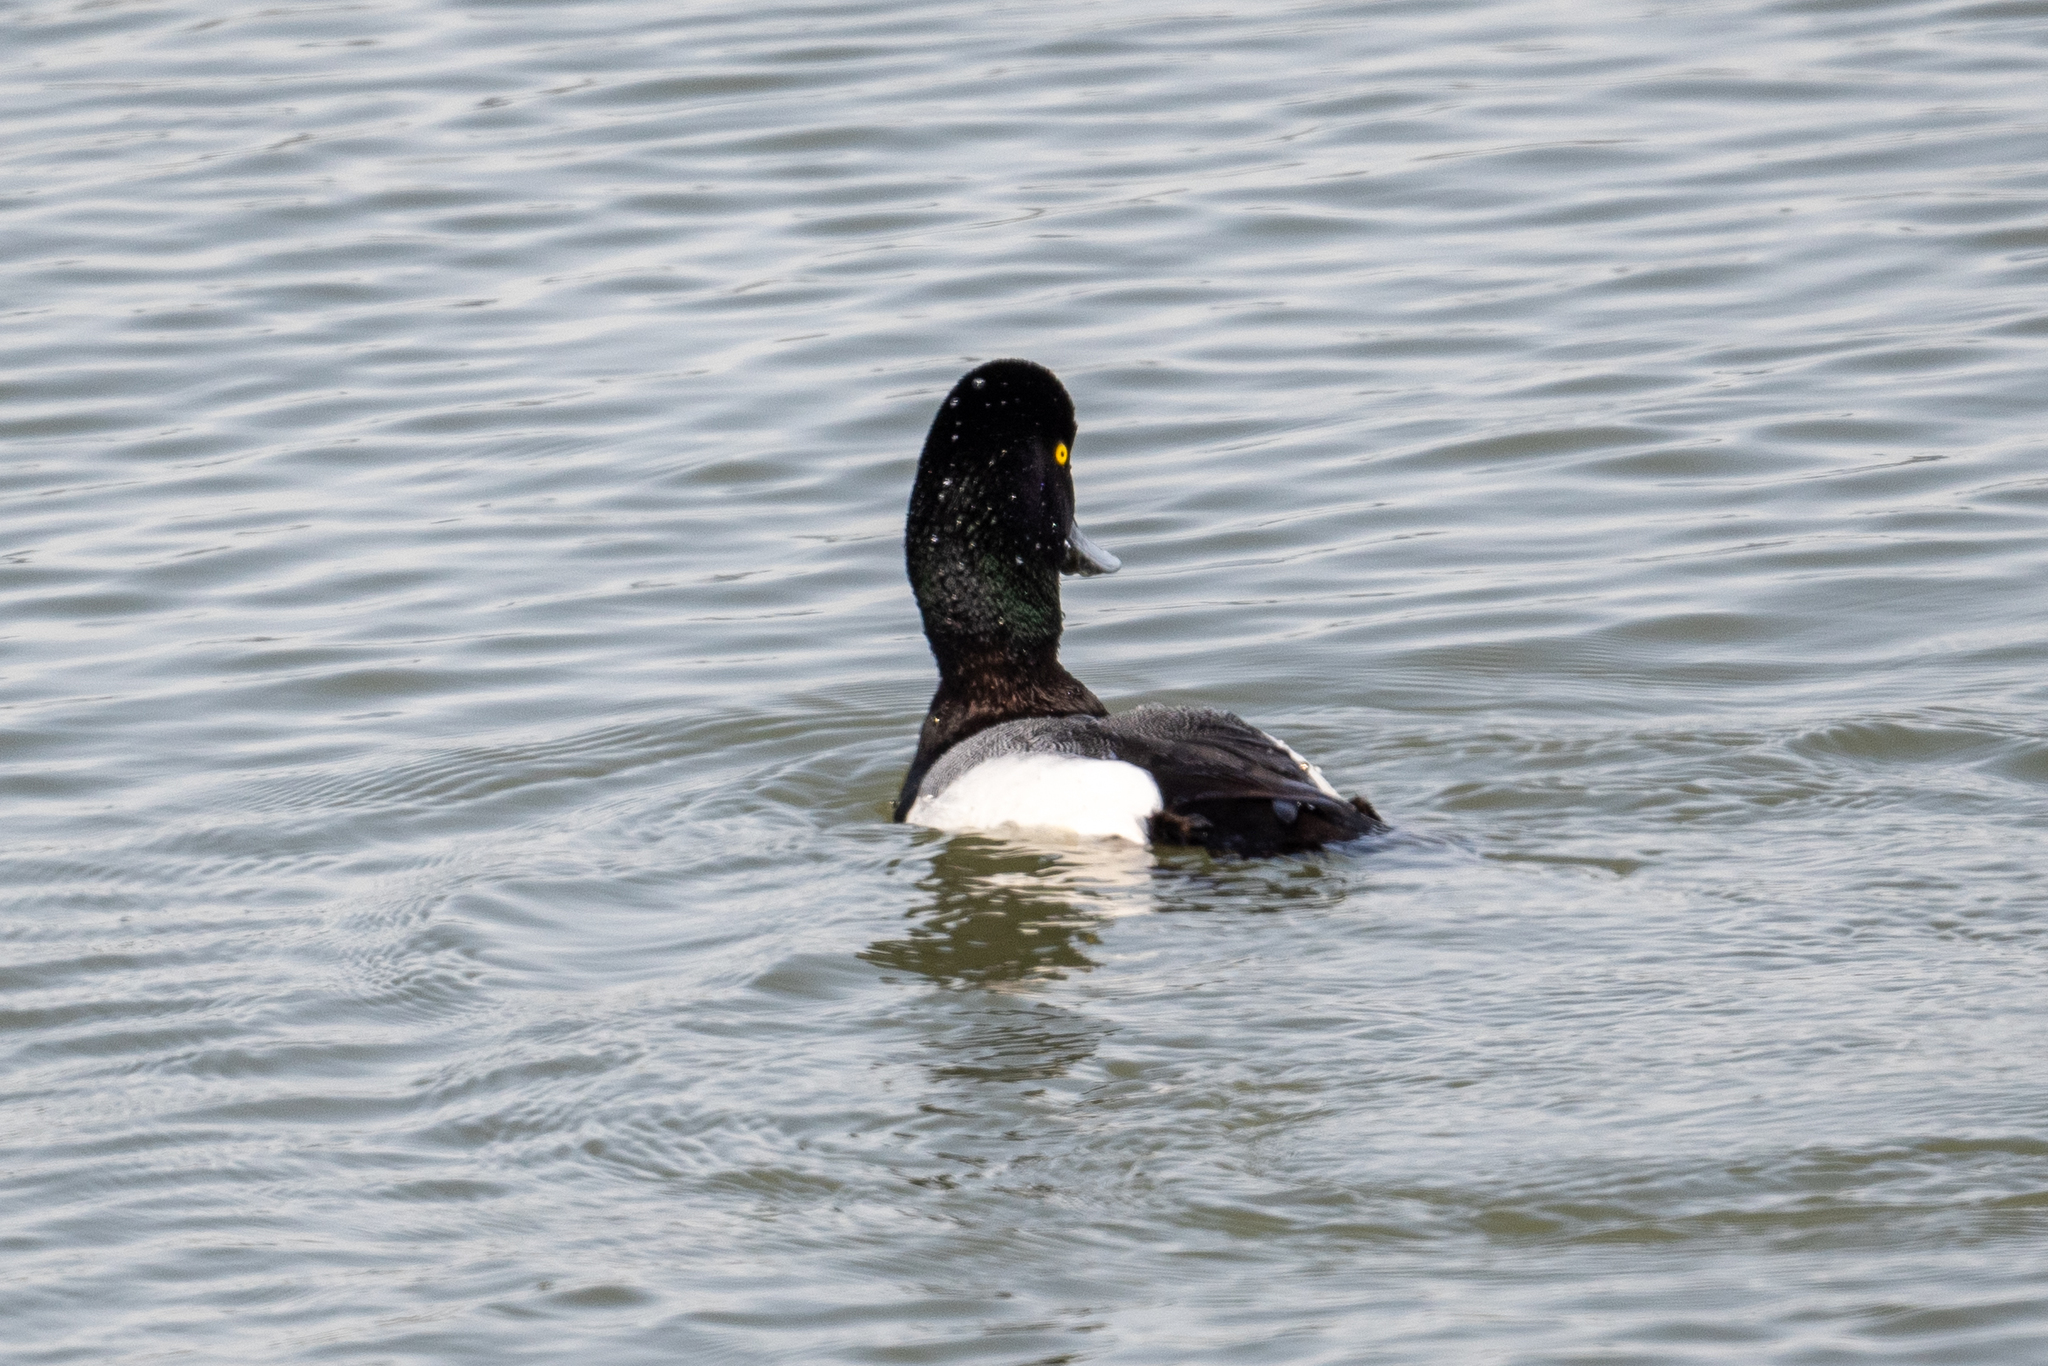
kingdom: Animalia
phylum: Chordata
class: Aves
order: Anseriformes
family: Anatidae
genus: Aythya
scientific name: Aythya marila
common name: Greater scaup
